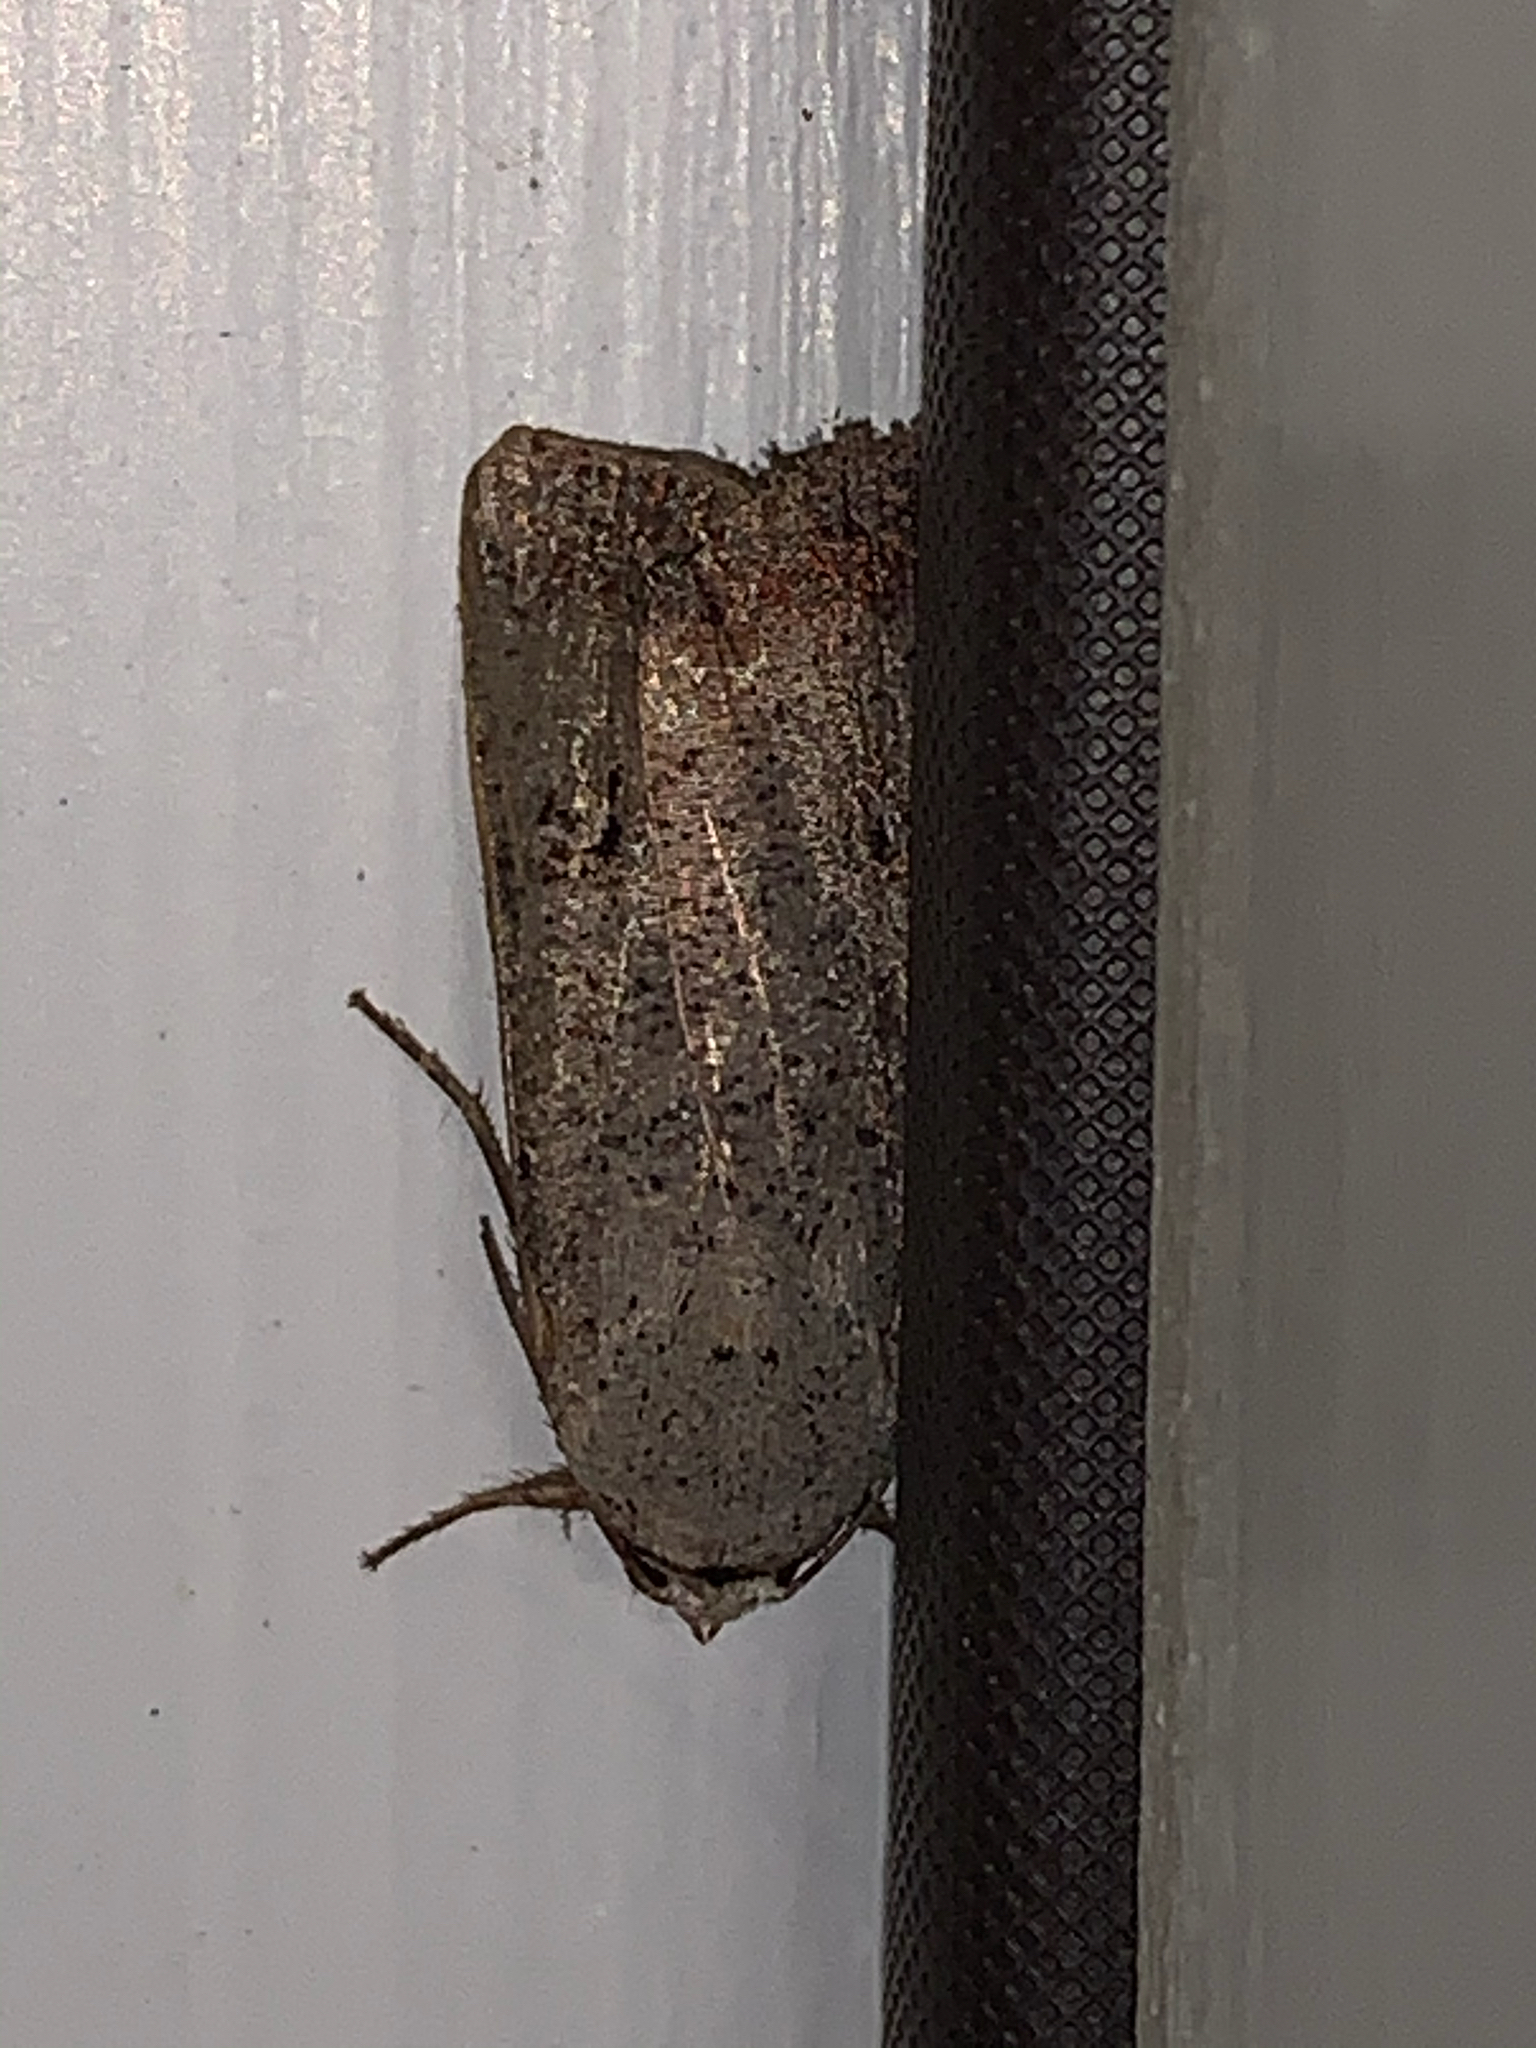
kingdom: Animalia
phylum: Arthropoda
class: Insecta
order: Lepidoptera
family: Noctuidae
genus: Anicla
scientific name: Anicla infecta
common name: Green cutworm
